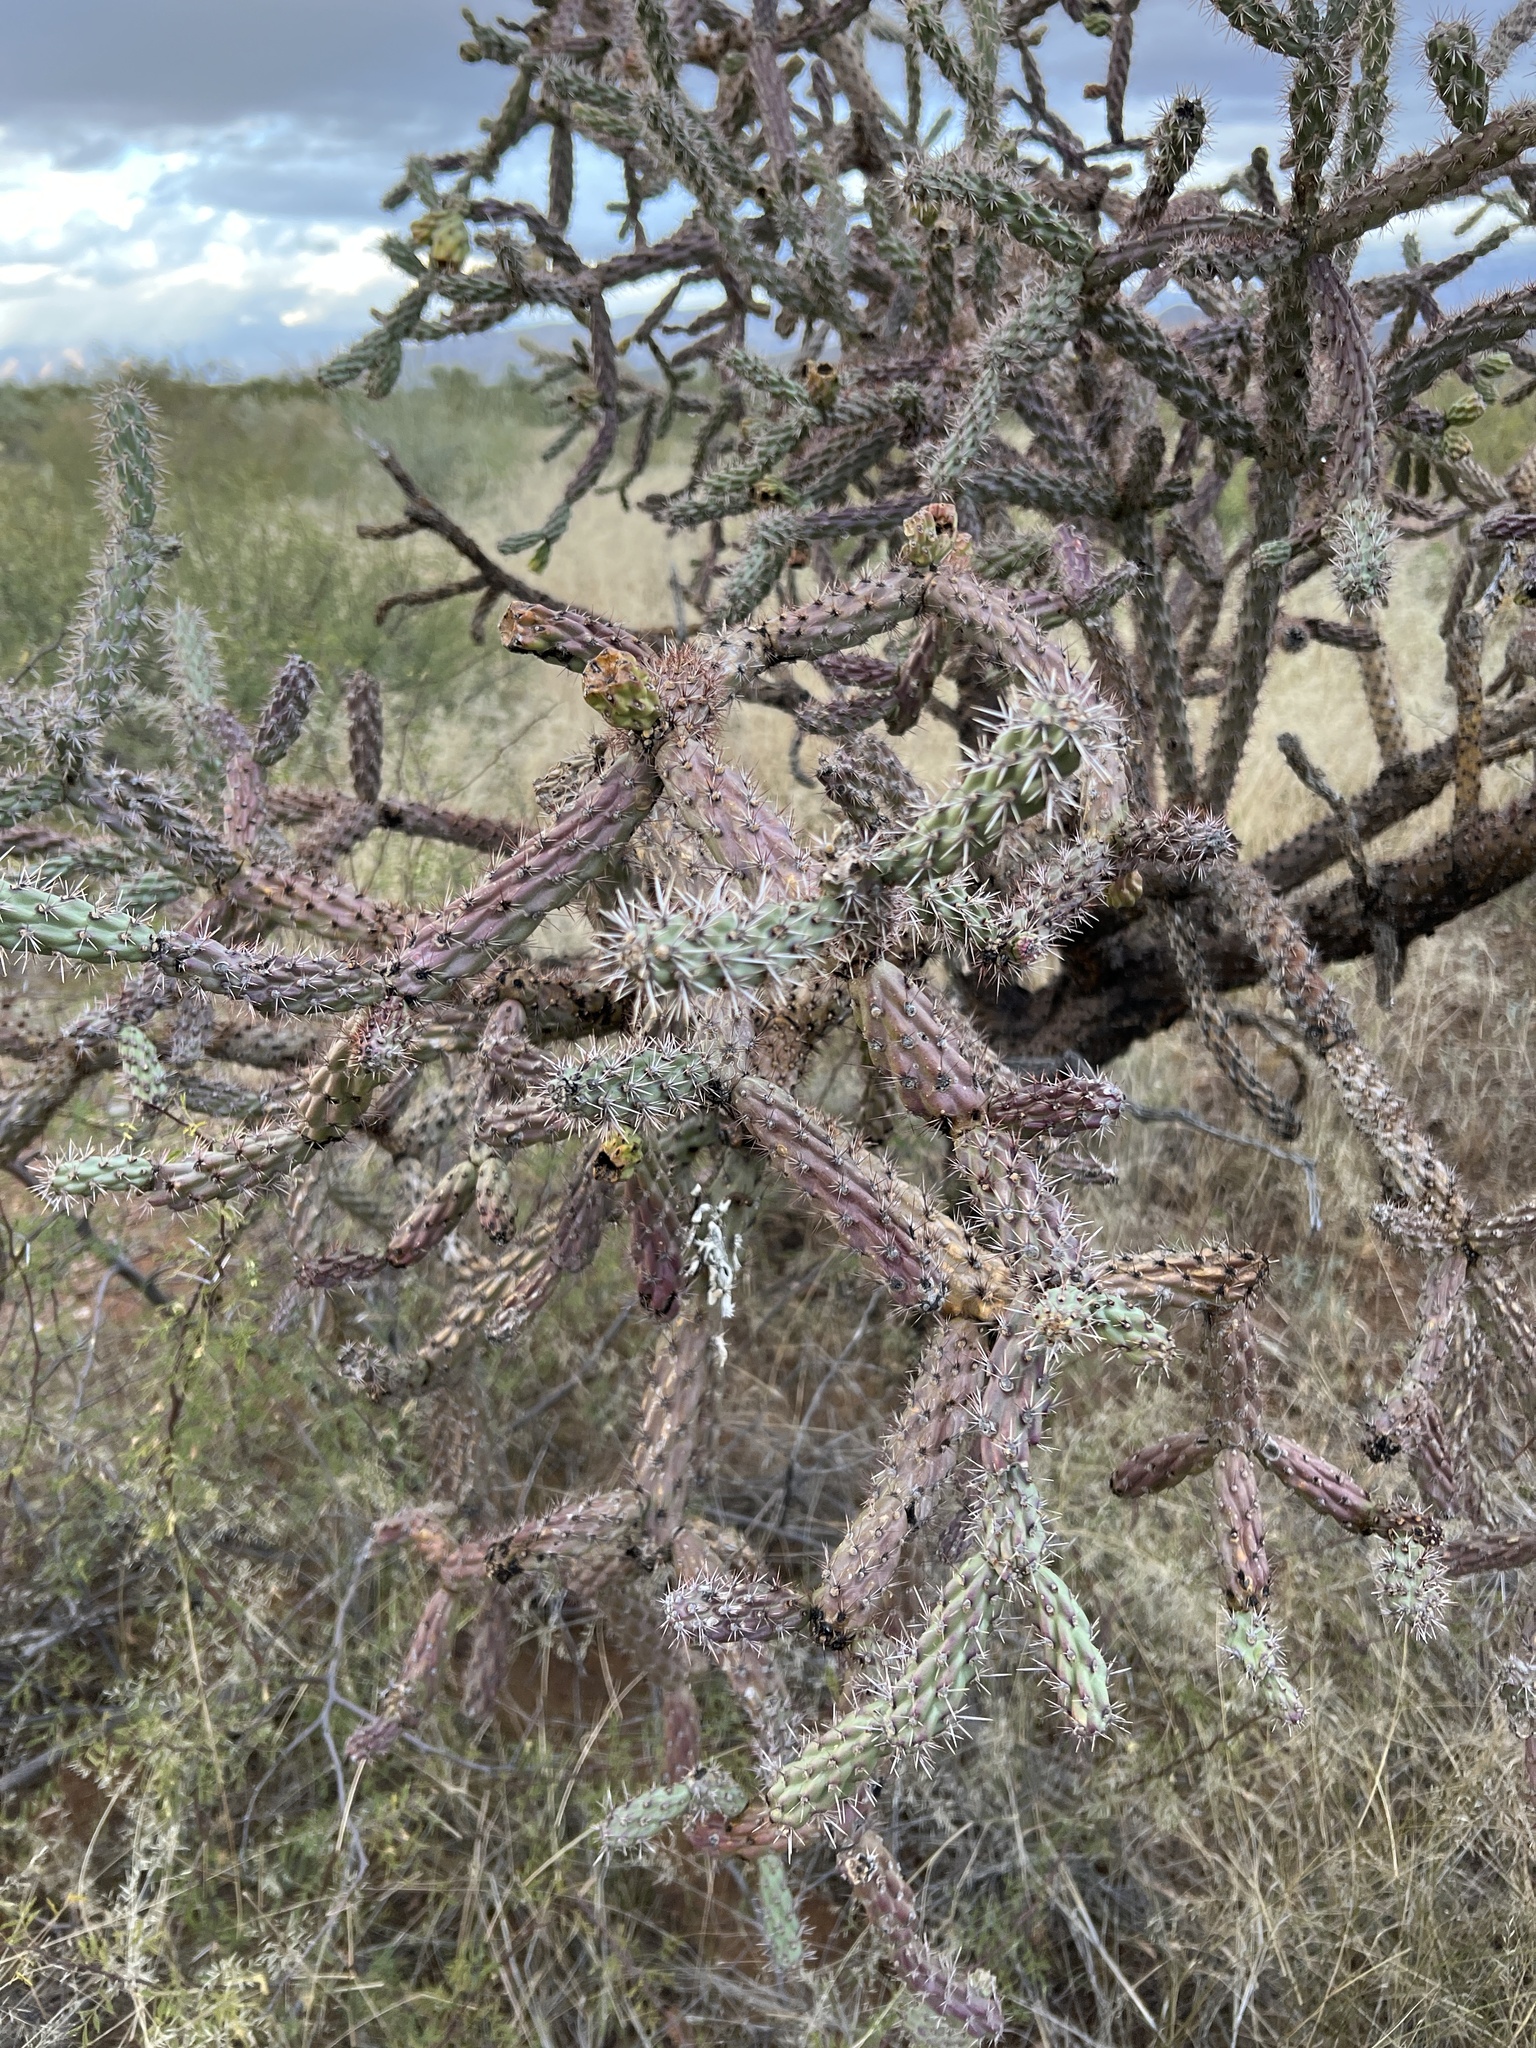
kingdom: Plantae
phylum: Tracheophyta
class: Magnoliopsida
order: Caryophyllales
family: Cactaceae
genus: Cylindropuntia
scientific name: Cylindropuntia thurberi
